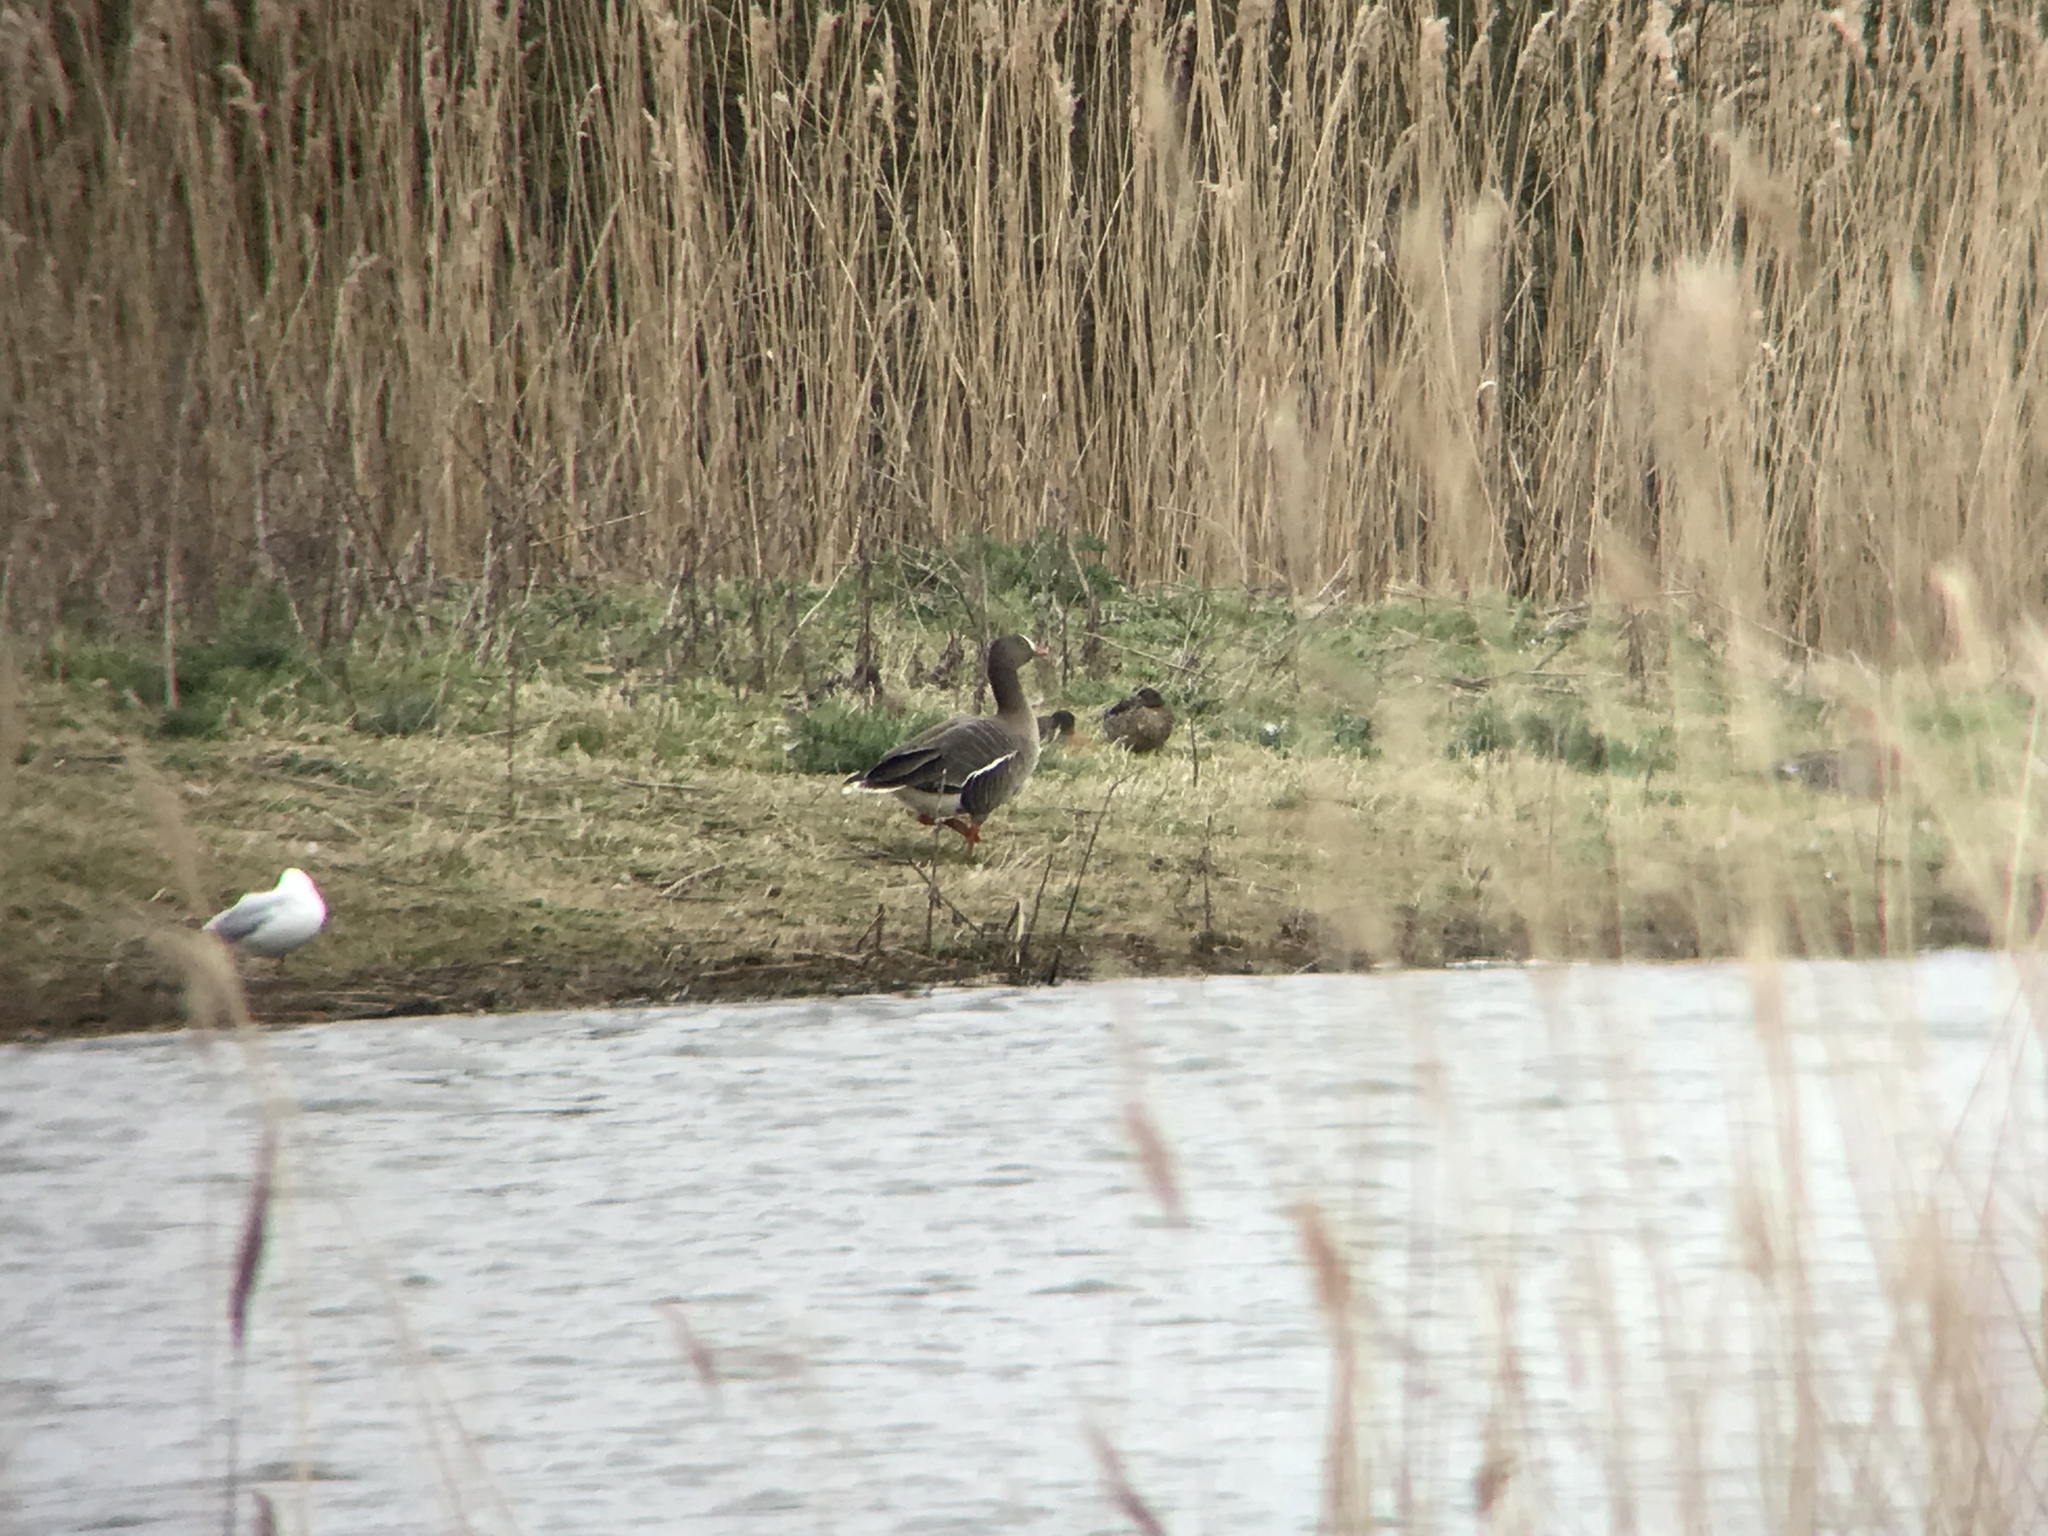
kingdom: Animalia
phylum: Chordata
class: Aves
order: Anseriformes
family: Anatidae
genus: Anser
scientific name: Anser erythropus
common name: Lesser white-fronted goose
